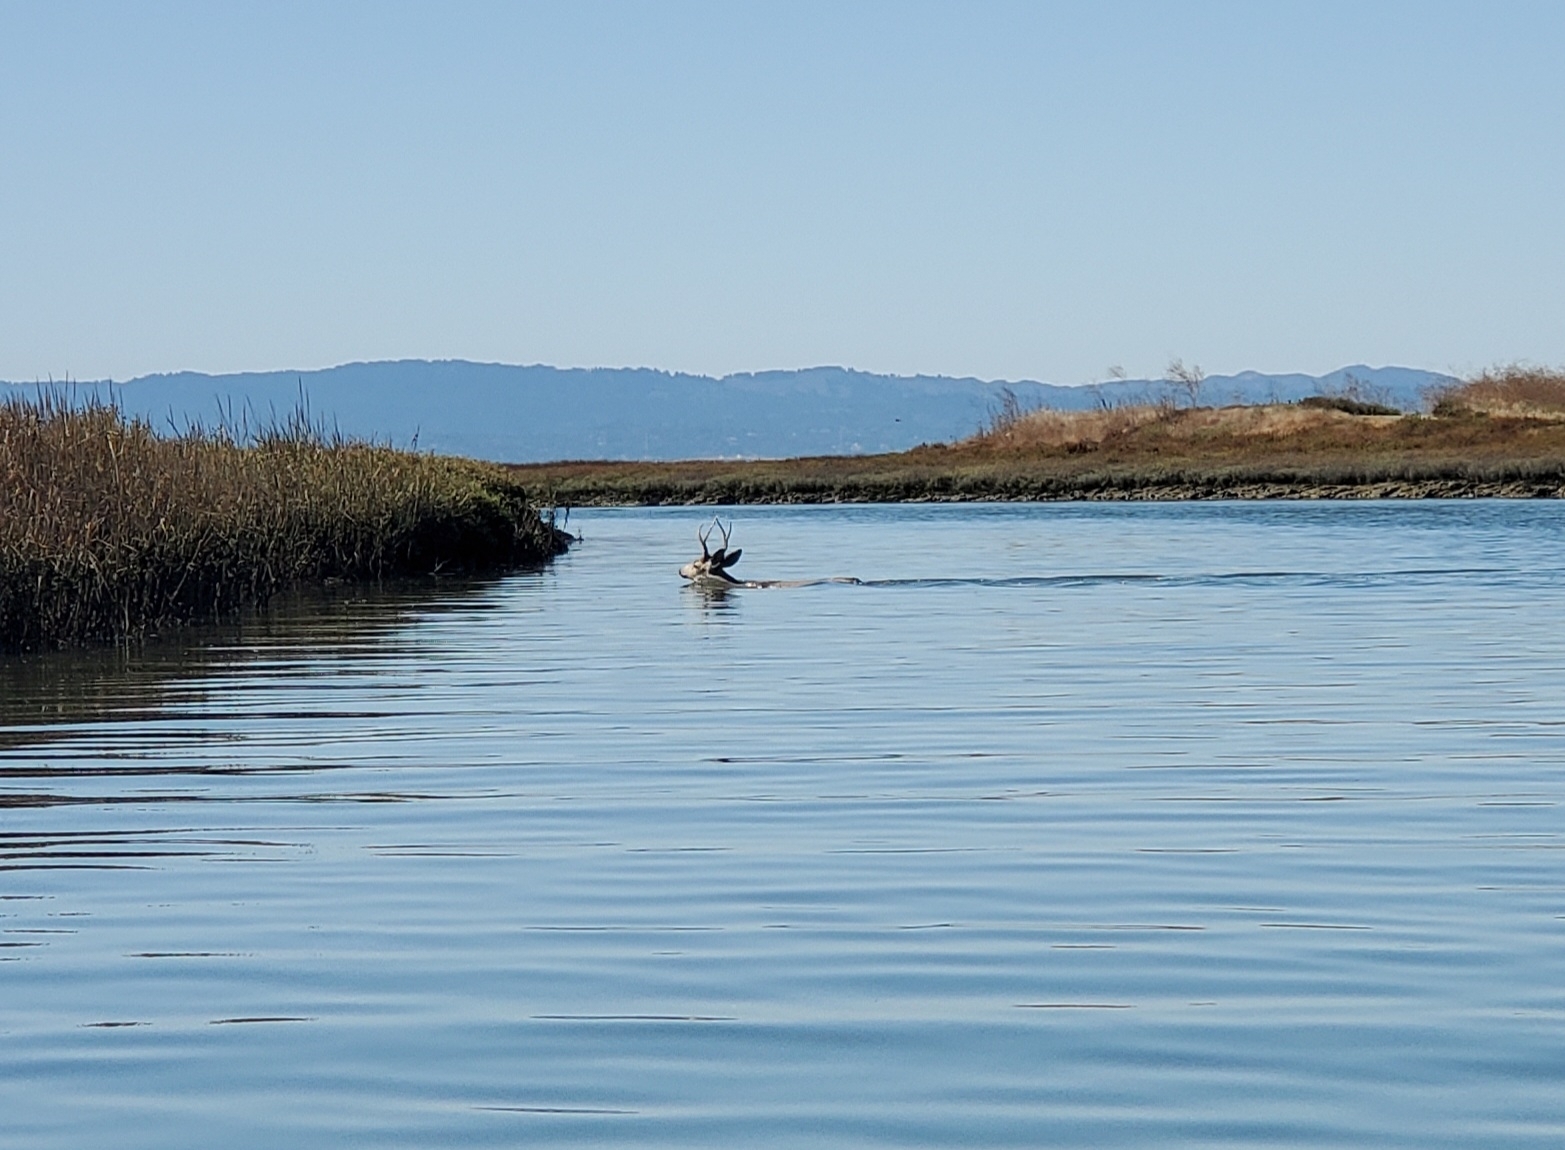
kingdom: Animalia
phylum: Chordata
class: Mammalia
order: Artiodactyla
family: Cervidae
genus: Odocoileus
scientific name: Odocoileus hemionus
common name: Mule deer
